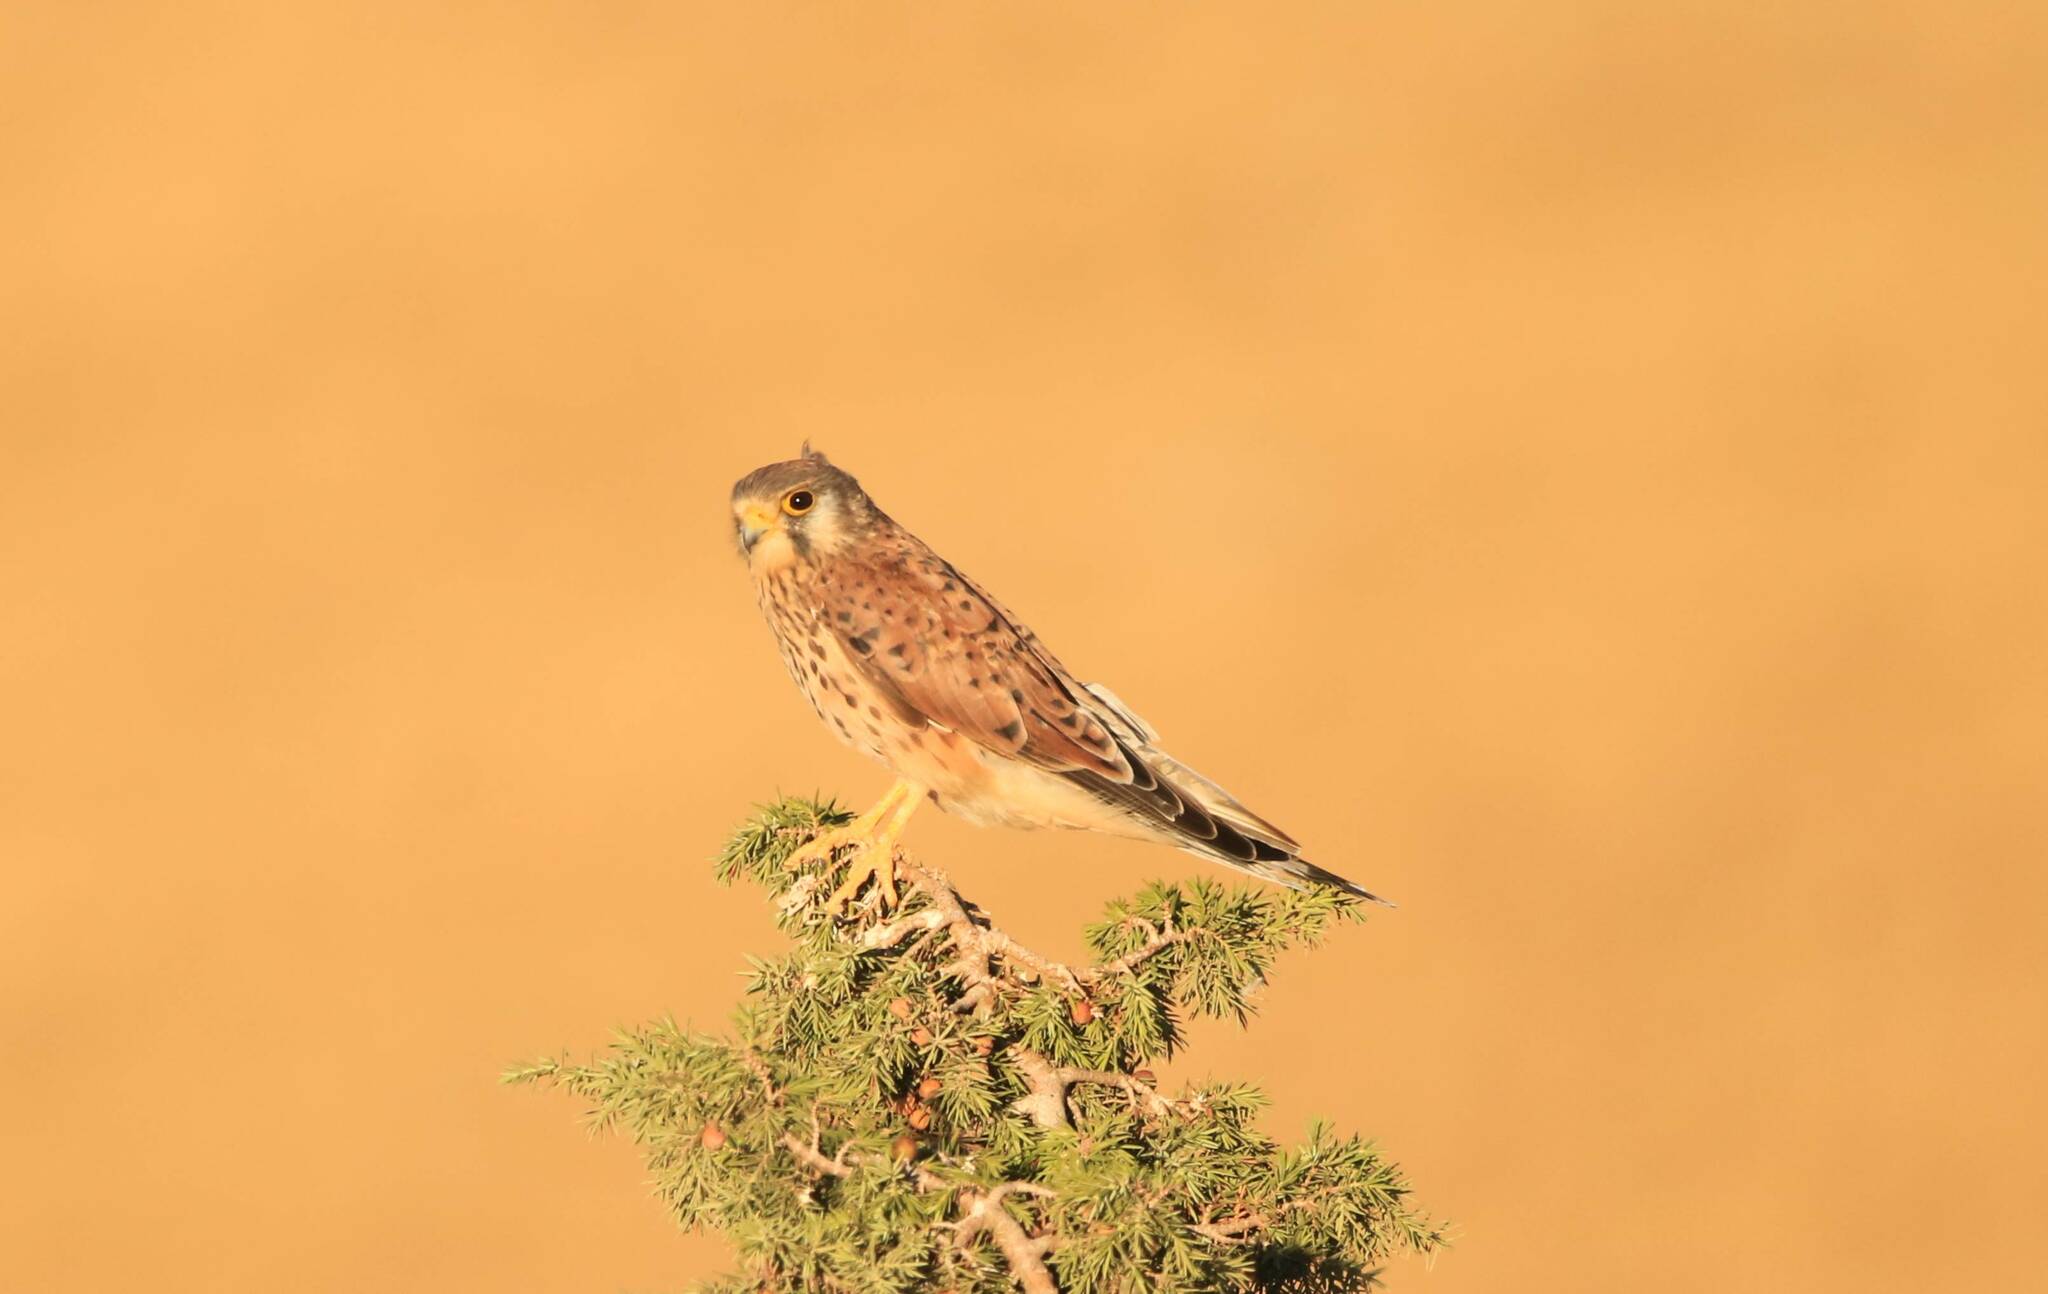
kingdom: Animalia
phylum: Chordata
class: Aves
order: Falconiformes
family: Falconidae
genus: Falco
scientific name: Falco tinnunculus
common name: Common kestrel
